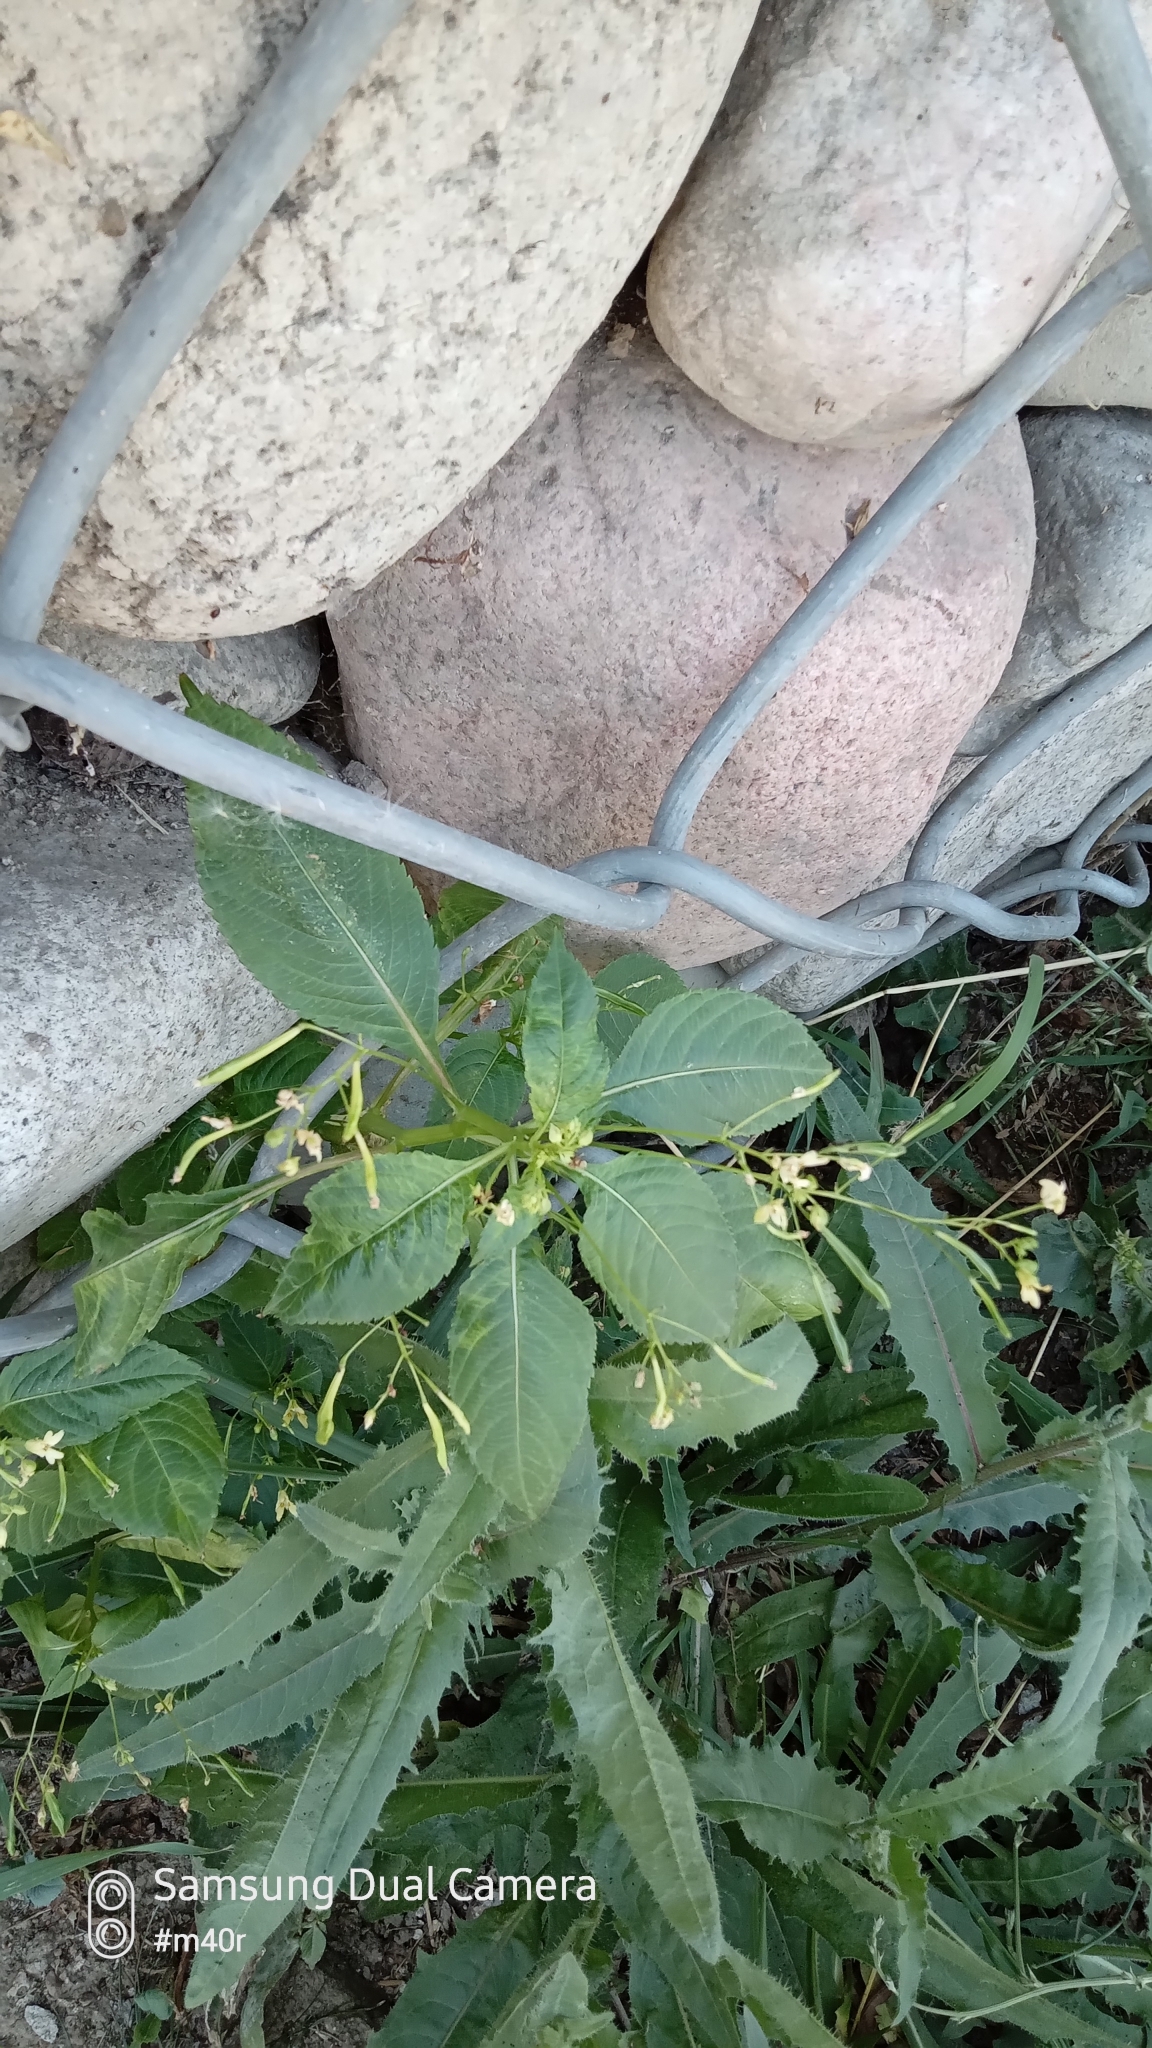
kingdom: Plantae
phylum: Tracheophyta
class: Magnoliopsida
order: Ericales
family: Balsaminaceae
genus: Impatiens
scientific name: Impatiens parviflora
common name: Small balsam
